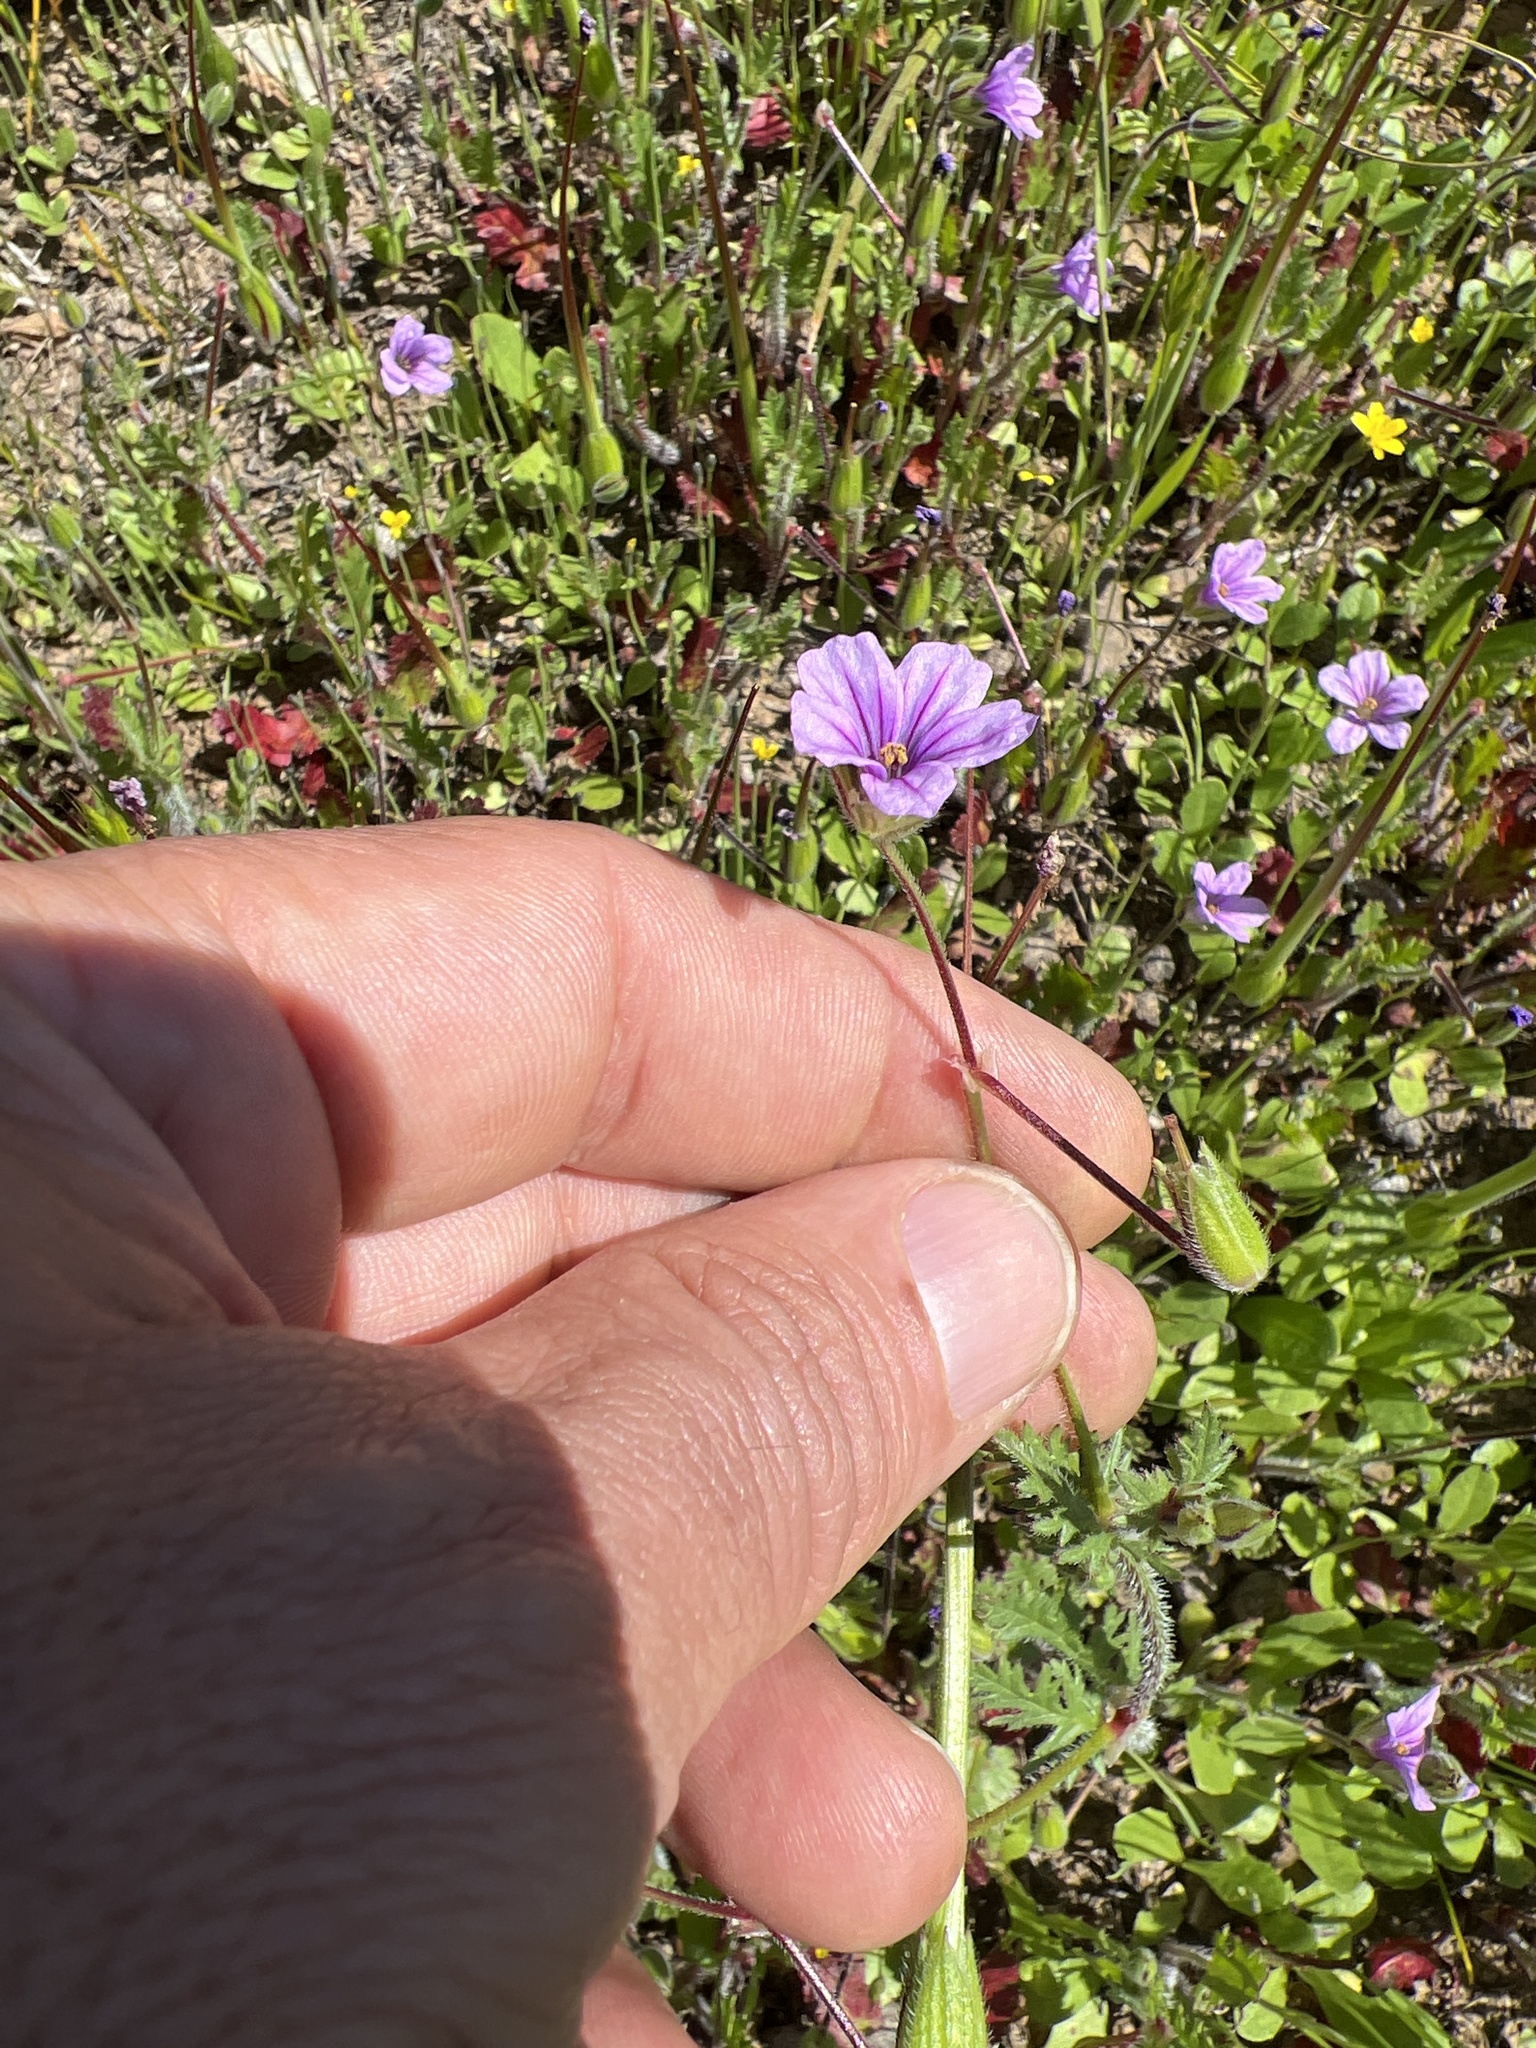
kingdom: Plantae
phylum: Tracheophyta
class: Magnoliopsida
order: Geraniales
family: Geraniaceae
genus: Erodium
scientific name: Erodium botrys
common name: Mediterranean stork's-bill
